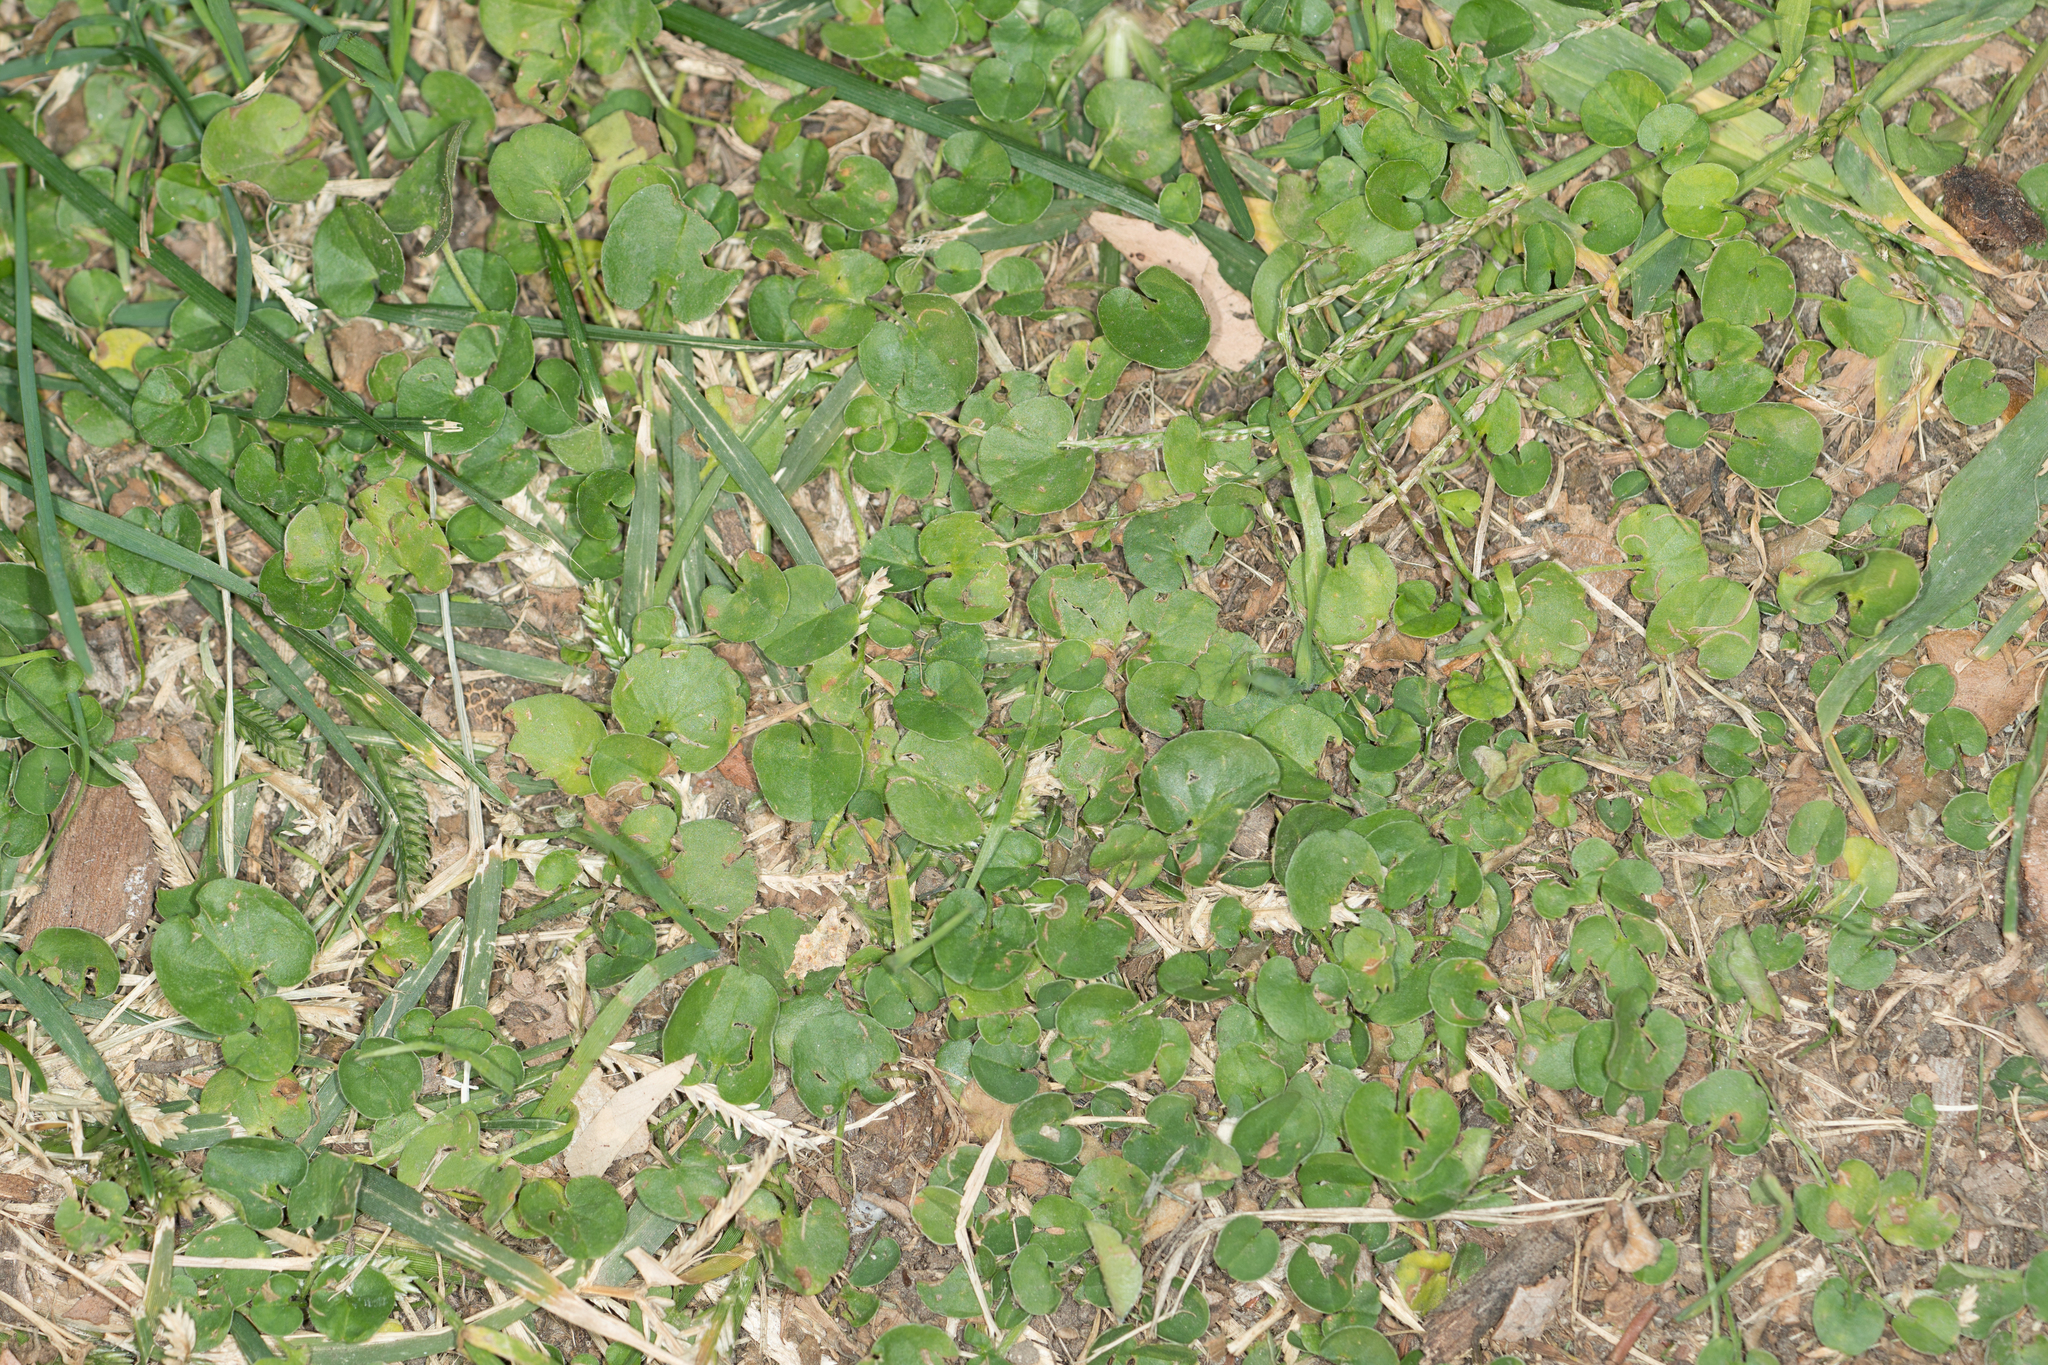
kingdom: Plantae
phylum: Tracheophyta
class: Magnoliopsida
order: Solanales
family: Convolvulaceae
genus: Dichondra
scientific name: Dichondra micrantha
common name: Kidneyweed
